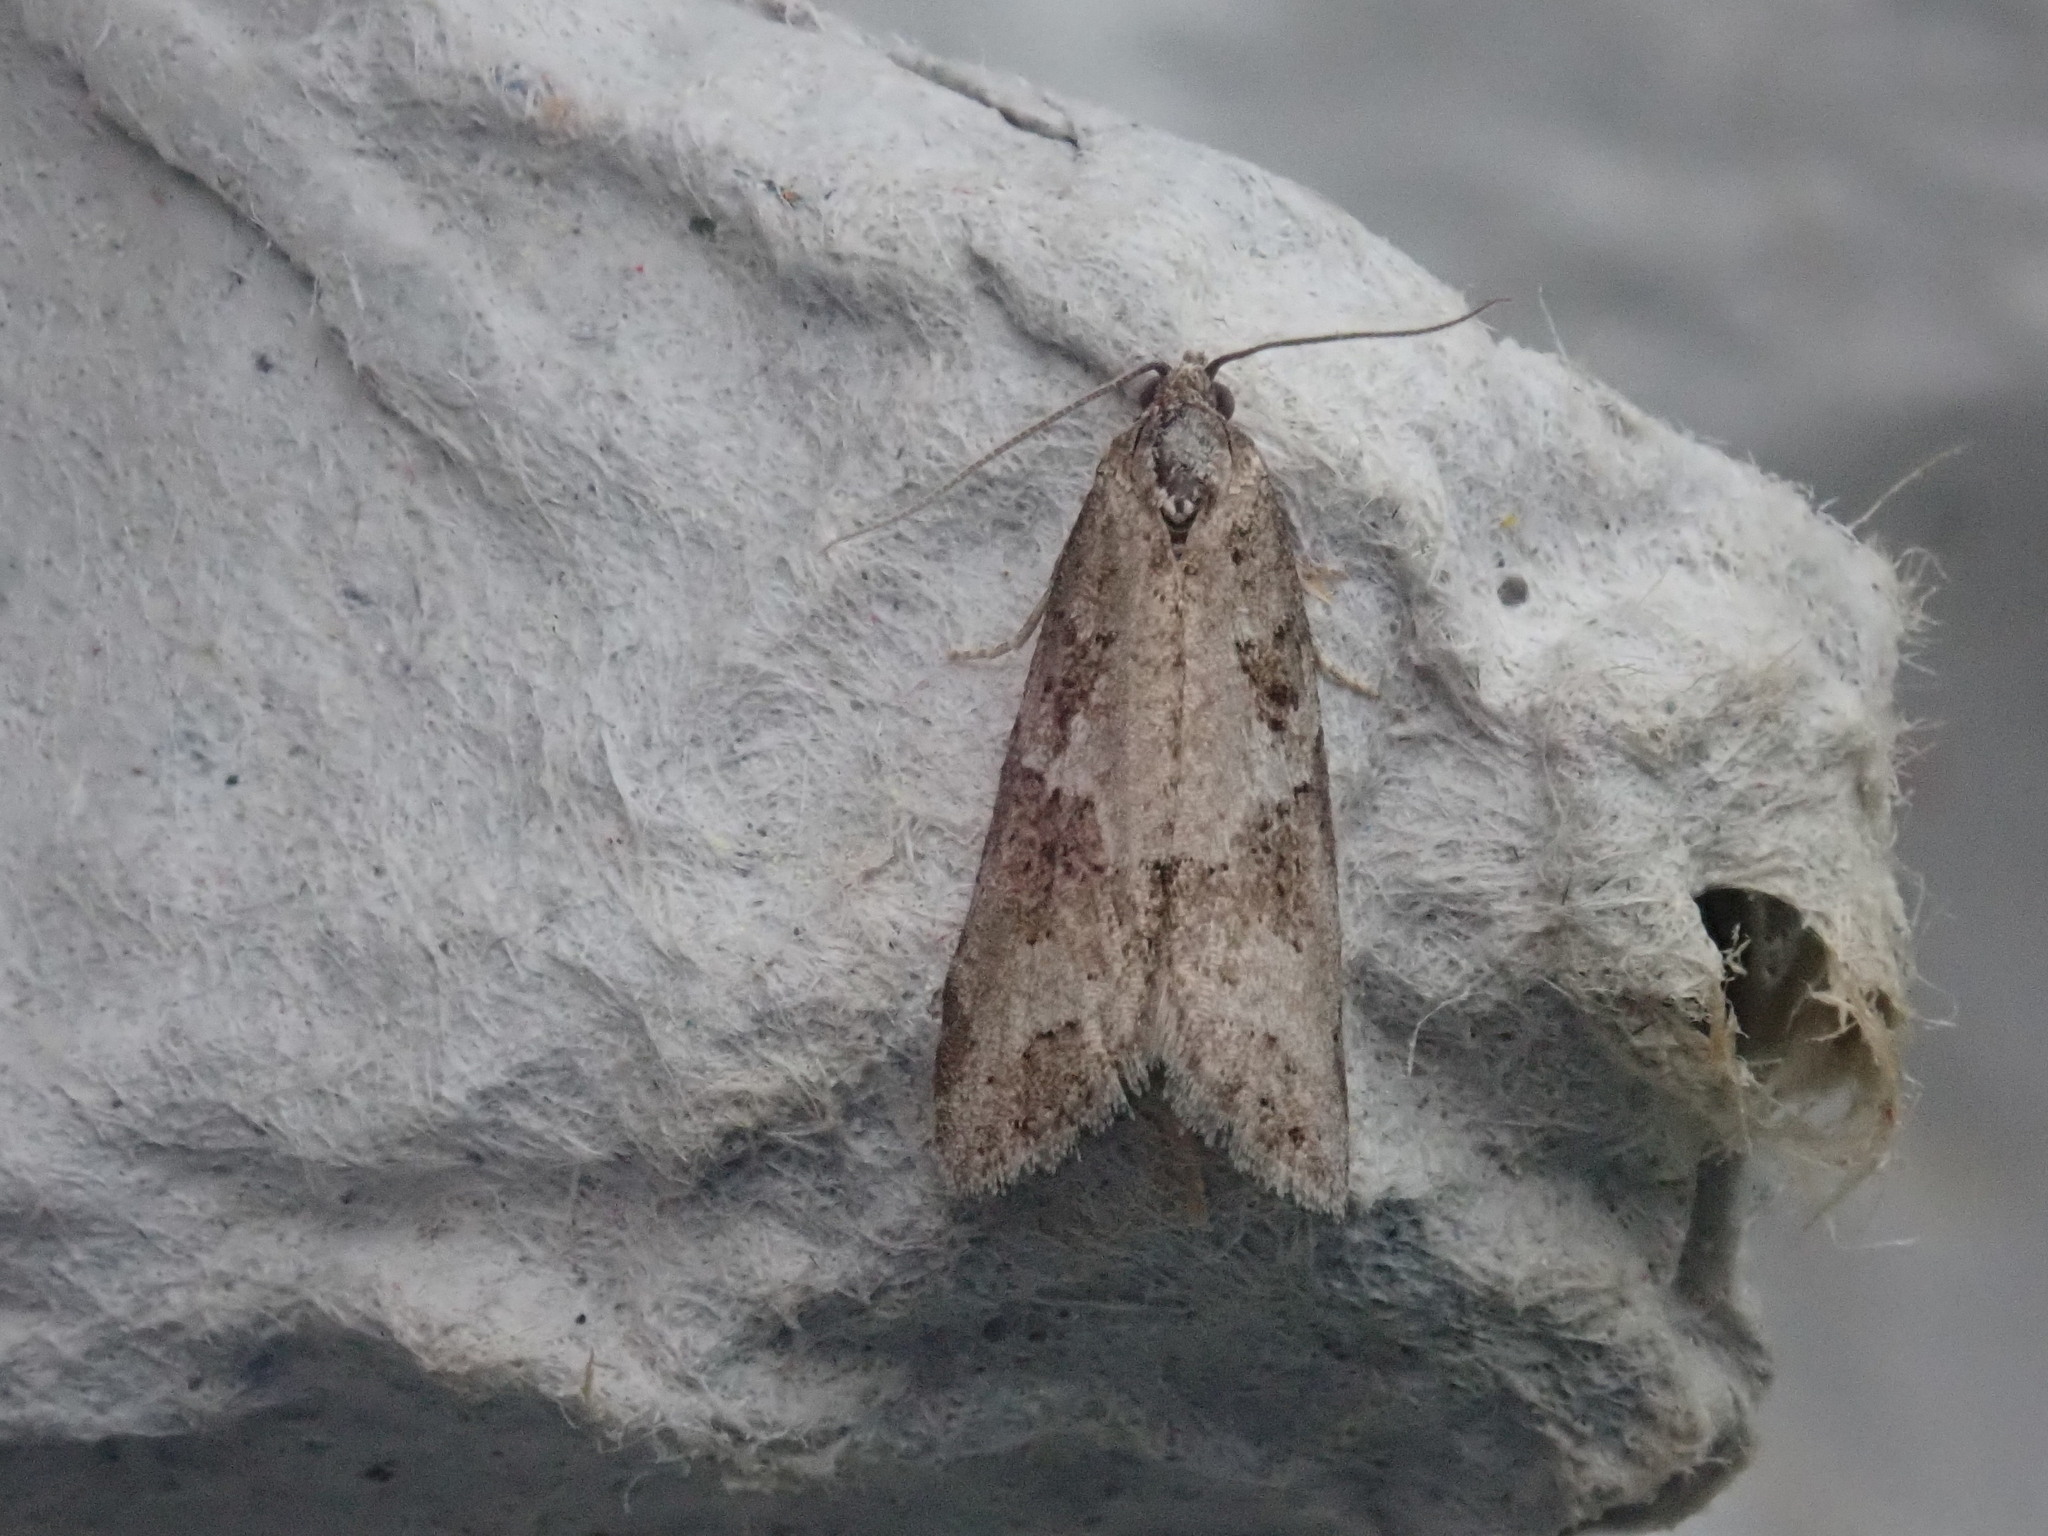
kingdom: Animalia
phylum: Arthropoda
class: Insecta
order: Lepidoptera
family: Tortricidae
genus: Cnephasia
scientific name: Cnephasia stephensiana
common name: Grey tortrix
